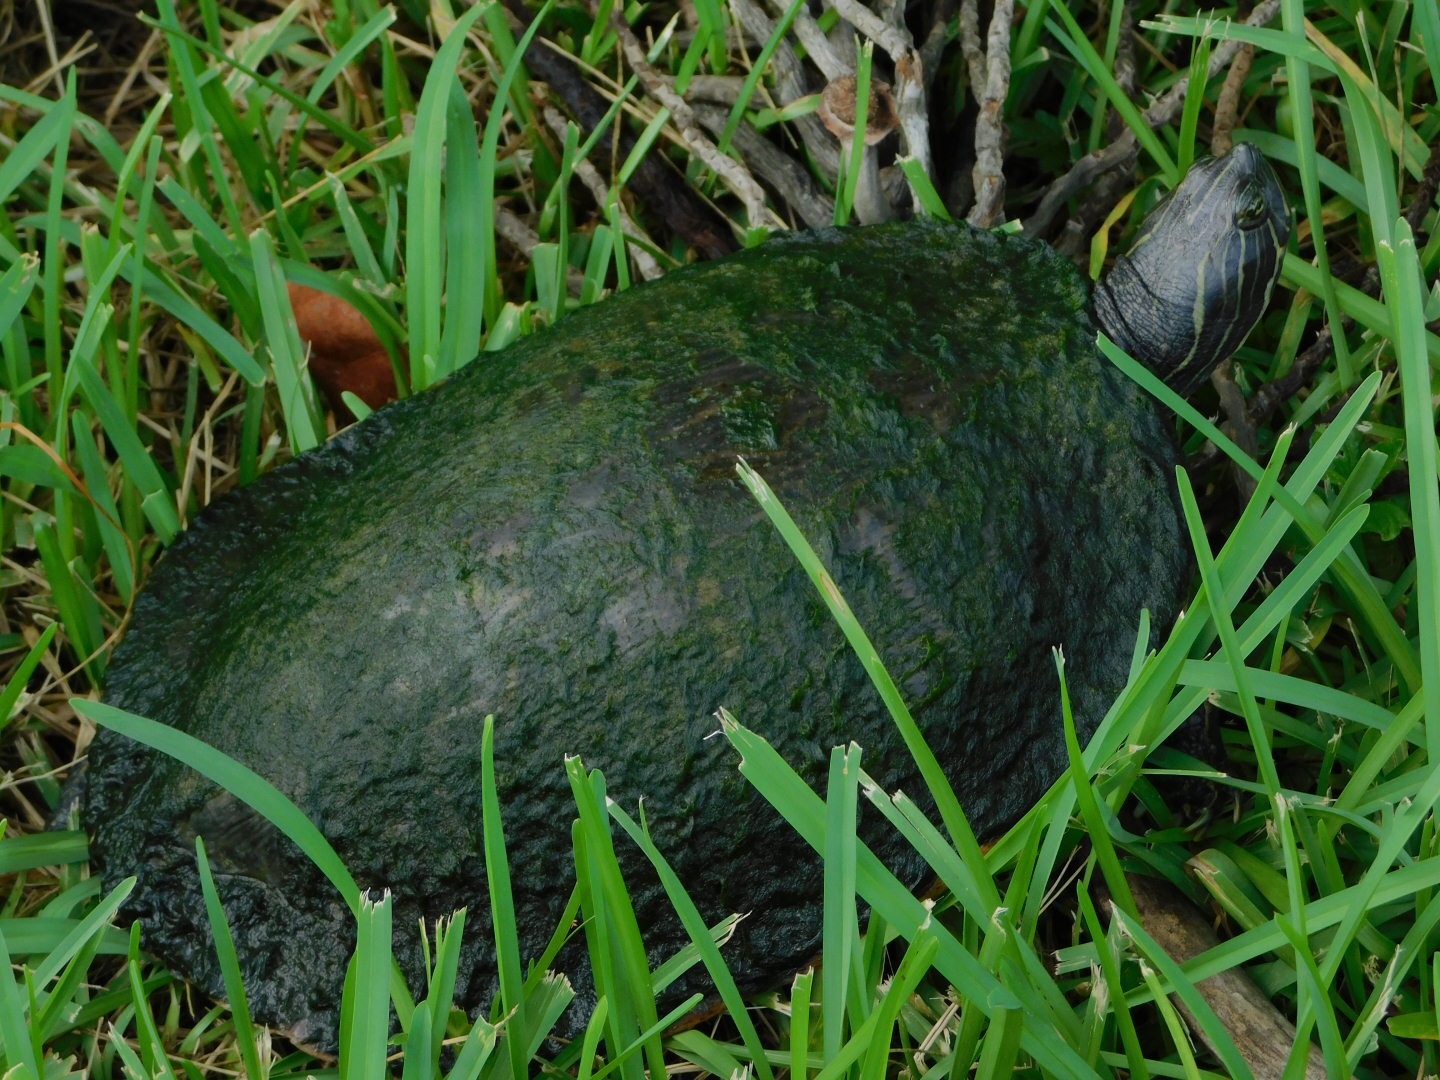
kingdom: Animalia
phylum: Chordata
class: Testudines
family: Emydidae
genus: Pseudemys
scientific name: Pseudemys peninsularis
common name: Peninsula cooter
